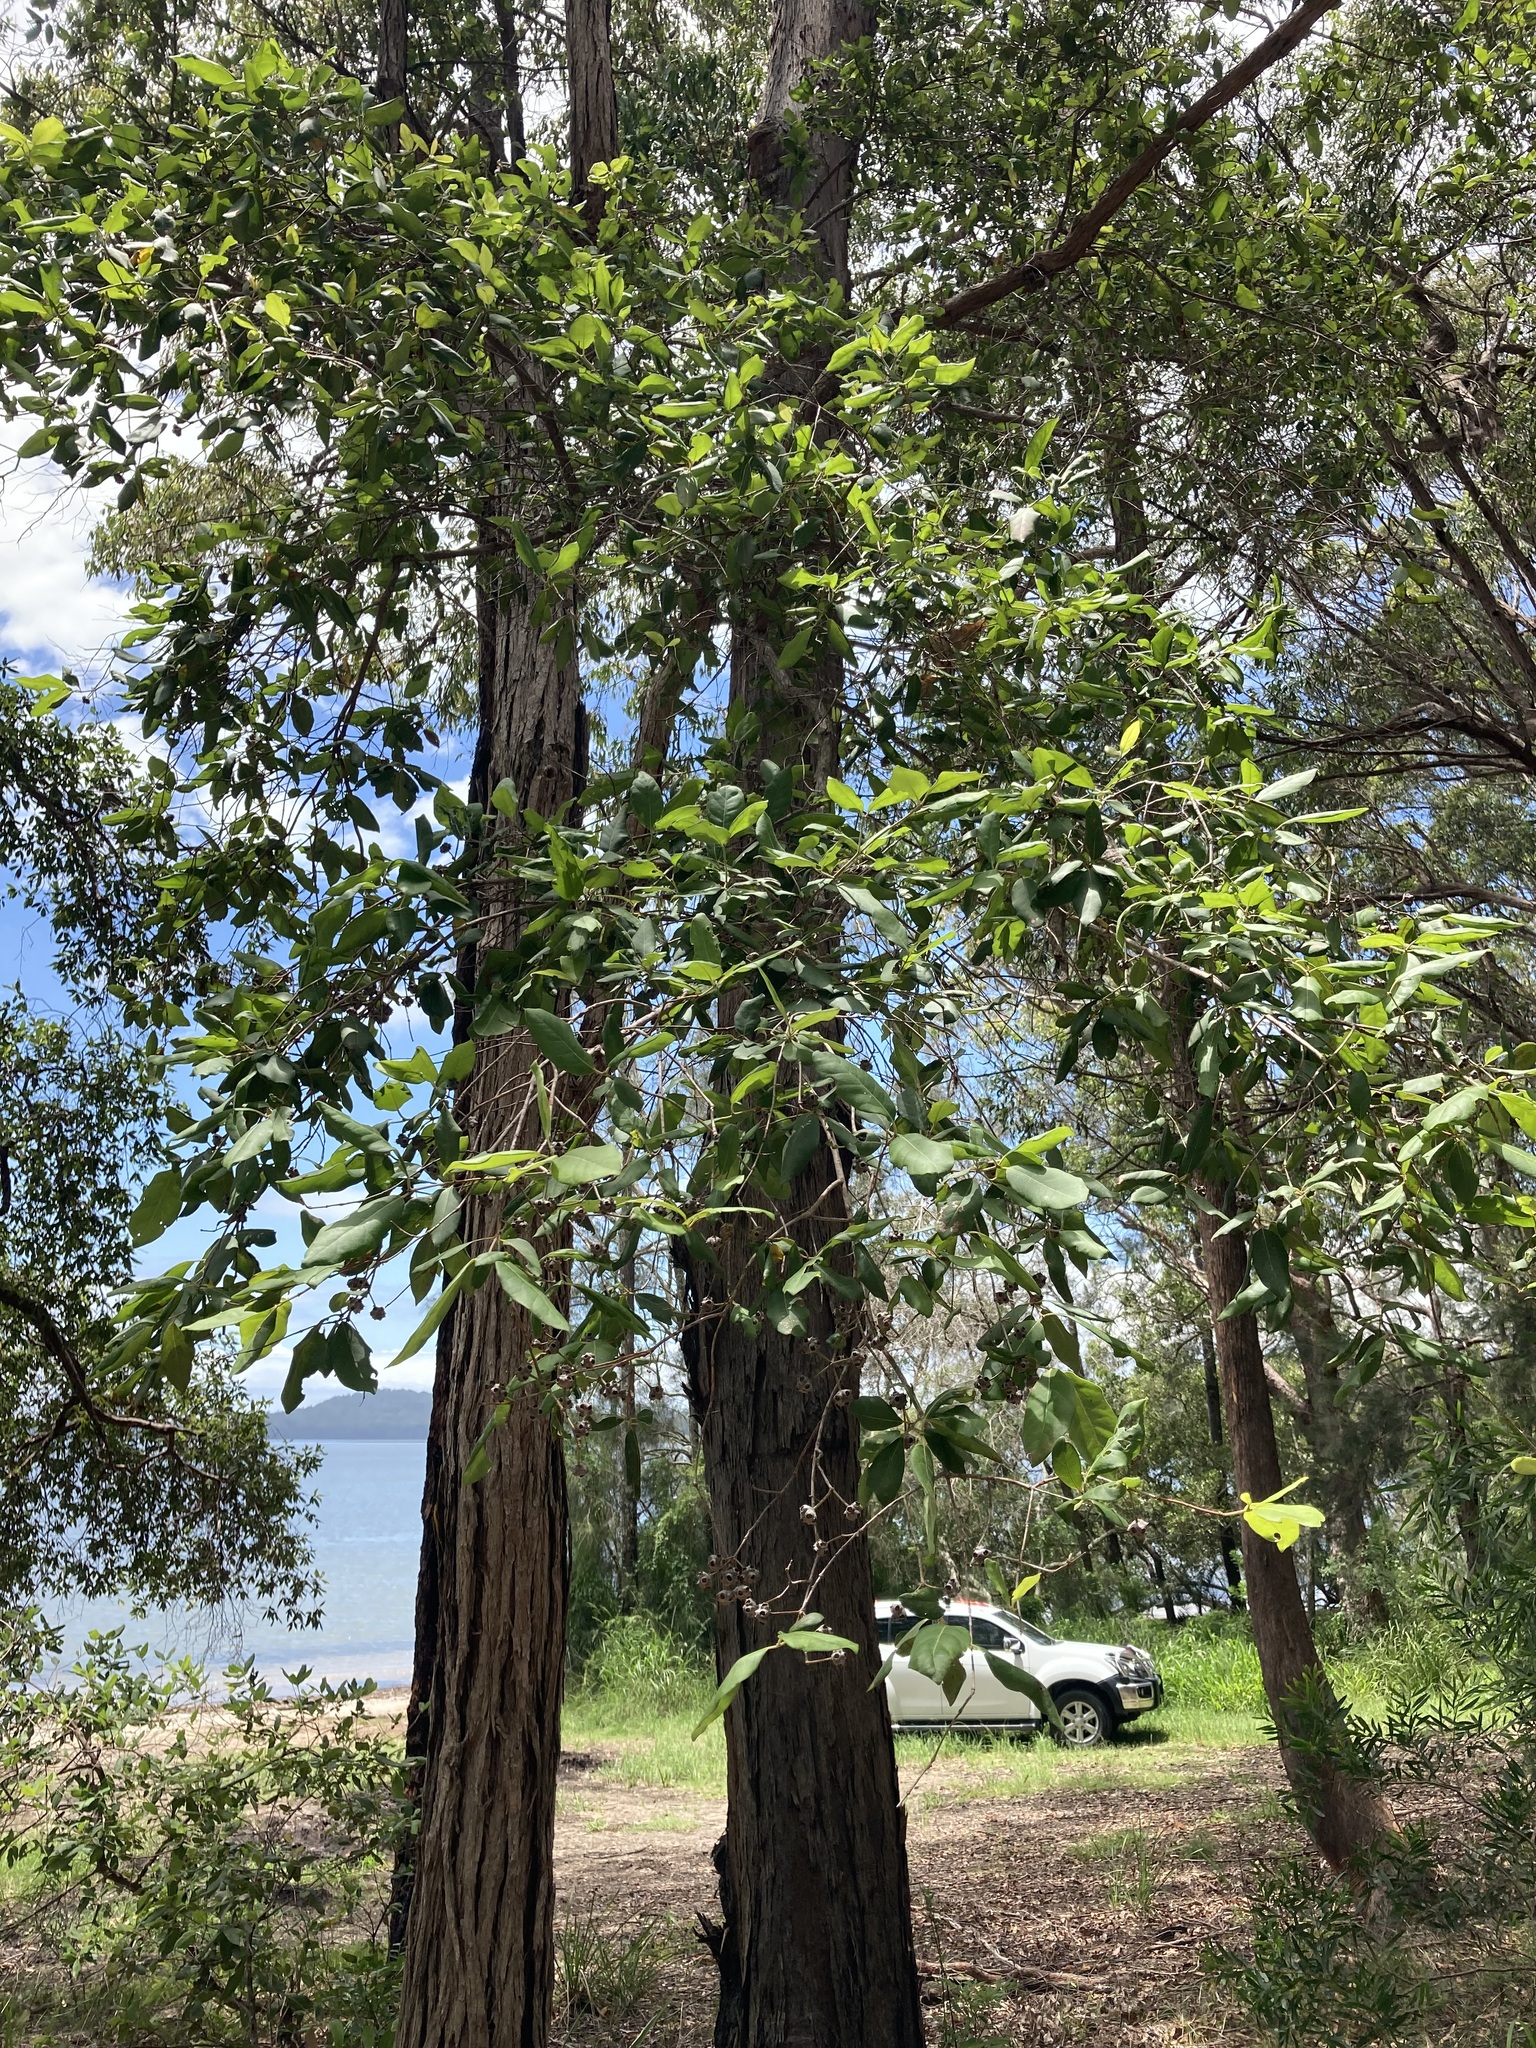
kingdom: Plantae
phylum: Tracheophyta
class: Magnoliopsida
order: Myrtales
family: Myrtaceae
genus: Syncarpia
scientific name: Syncarpia glomulifera
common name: Turpentine tree
